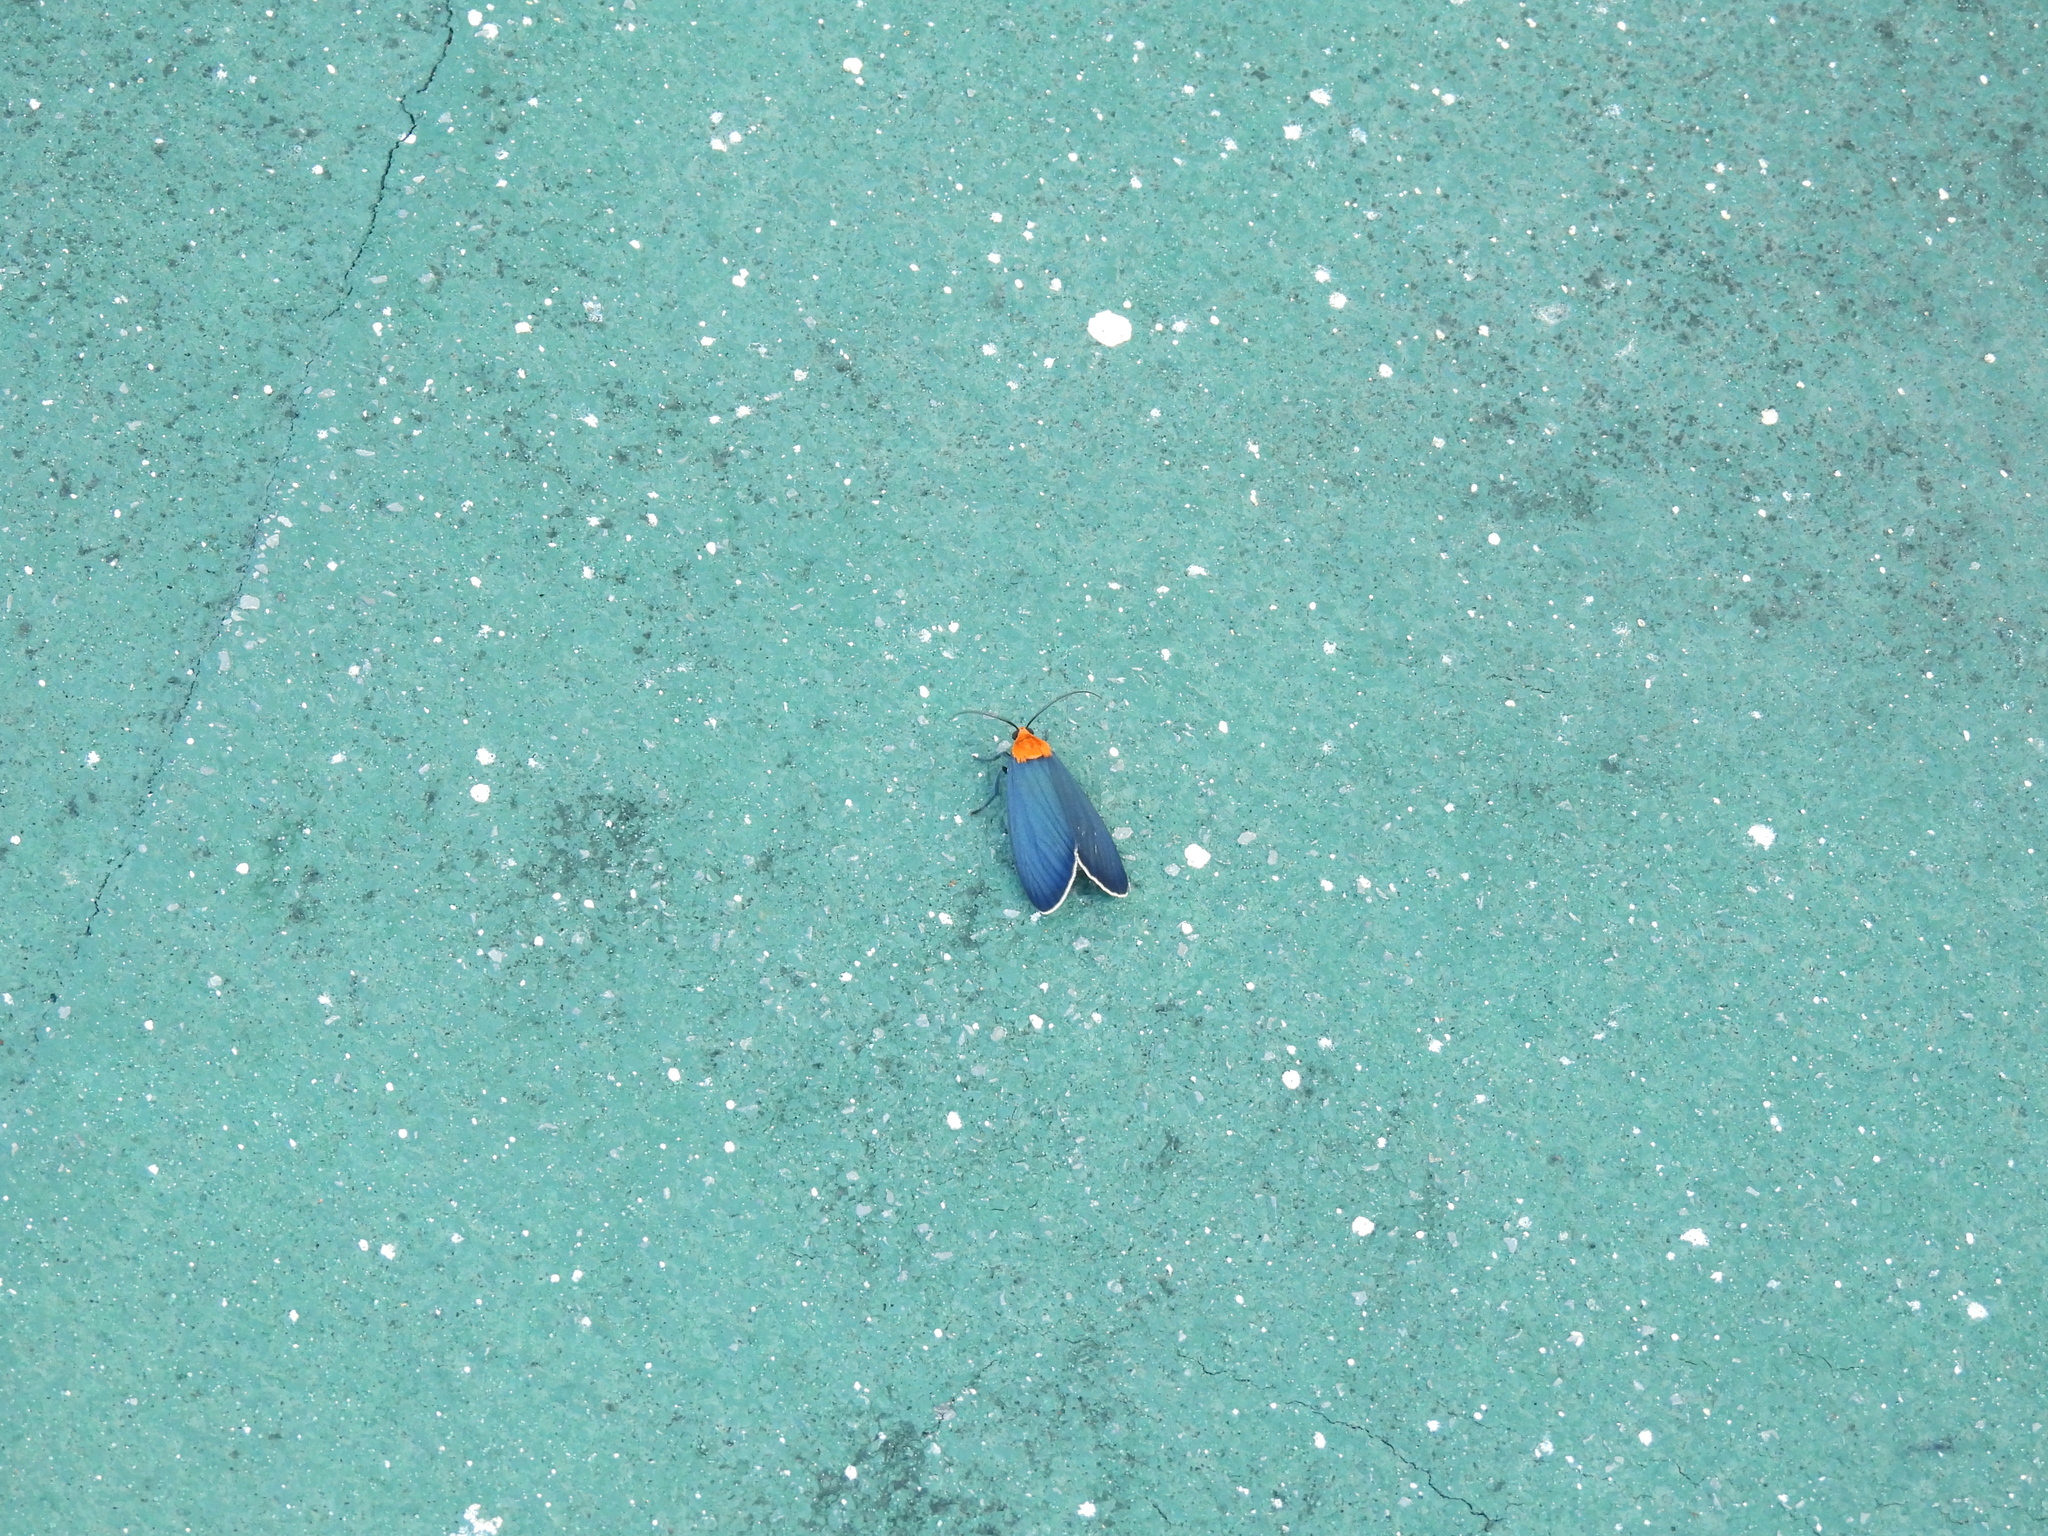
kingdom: Animalia
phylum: Arthropoda
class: Insecta
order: Lepidoptera
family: Erebidae
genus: Apistosia
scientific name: Apistosia judas
